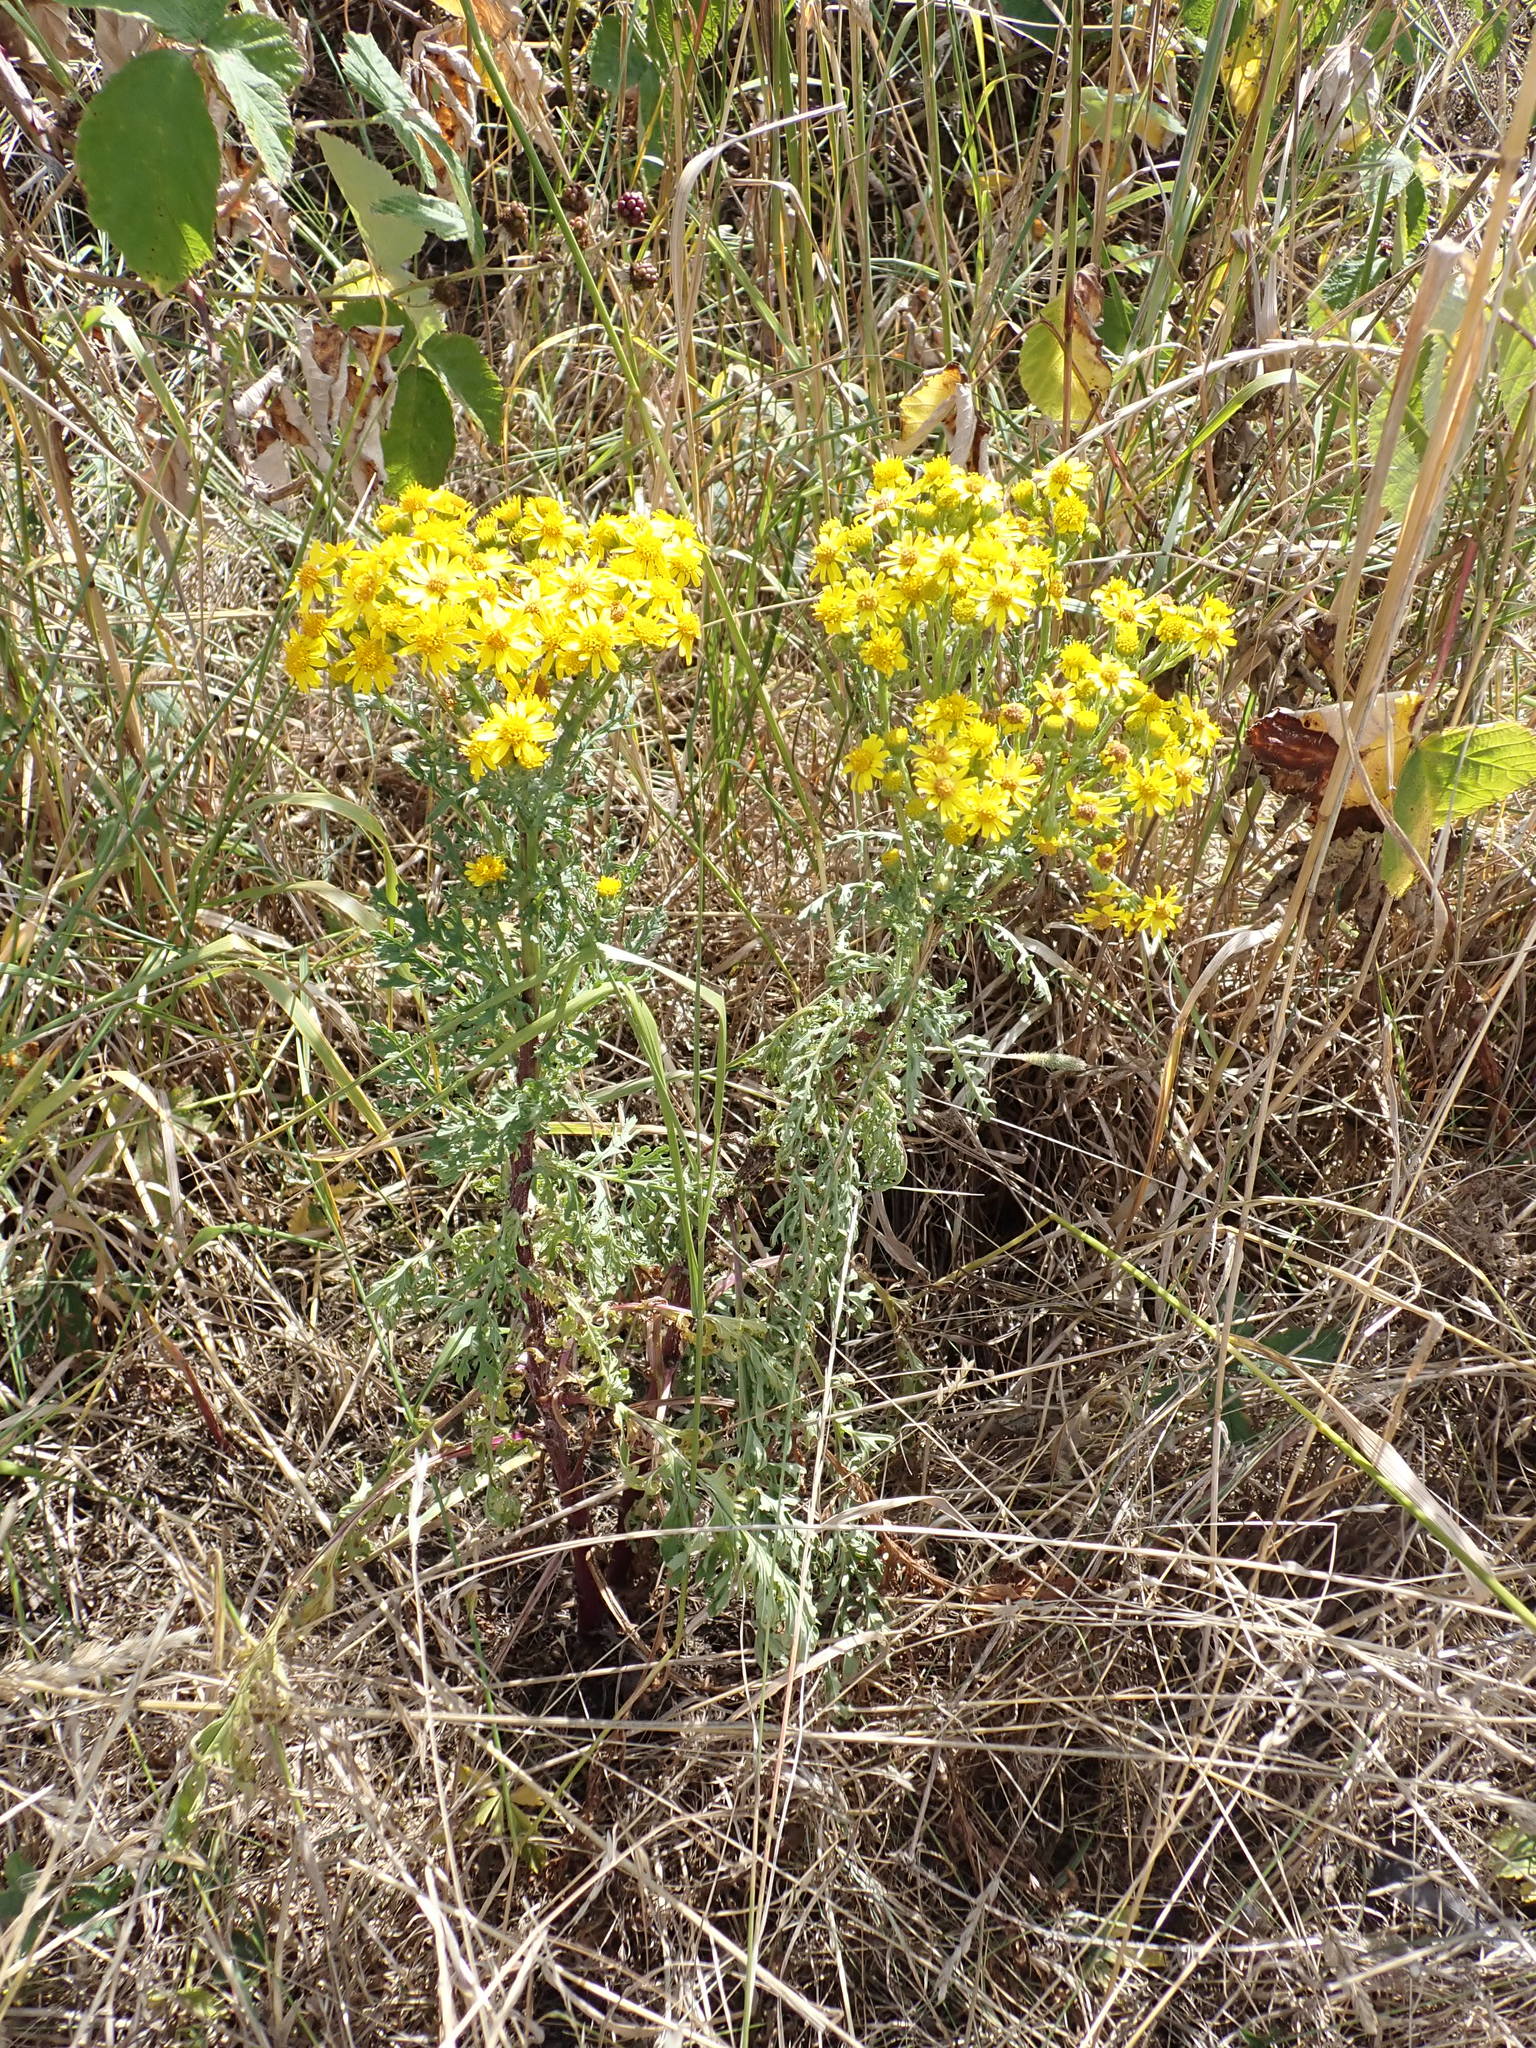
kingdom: Plantae
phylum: Tracheophyta
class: Magnoliopsida
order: Asterales
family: Asteraceae
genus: Jacobaea
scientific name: Jacobaea vulgaris
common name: Stinking willie
